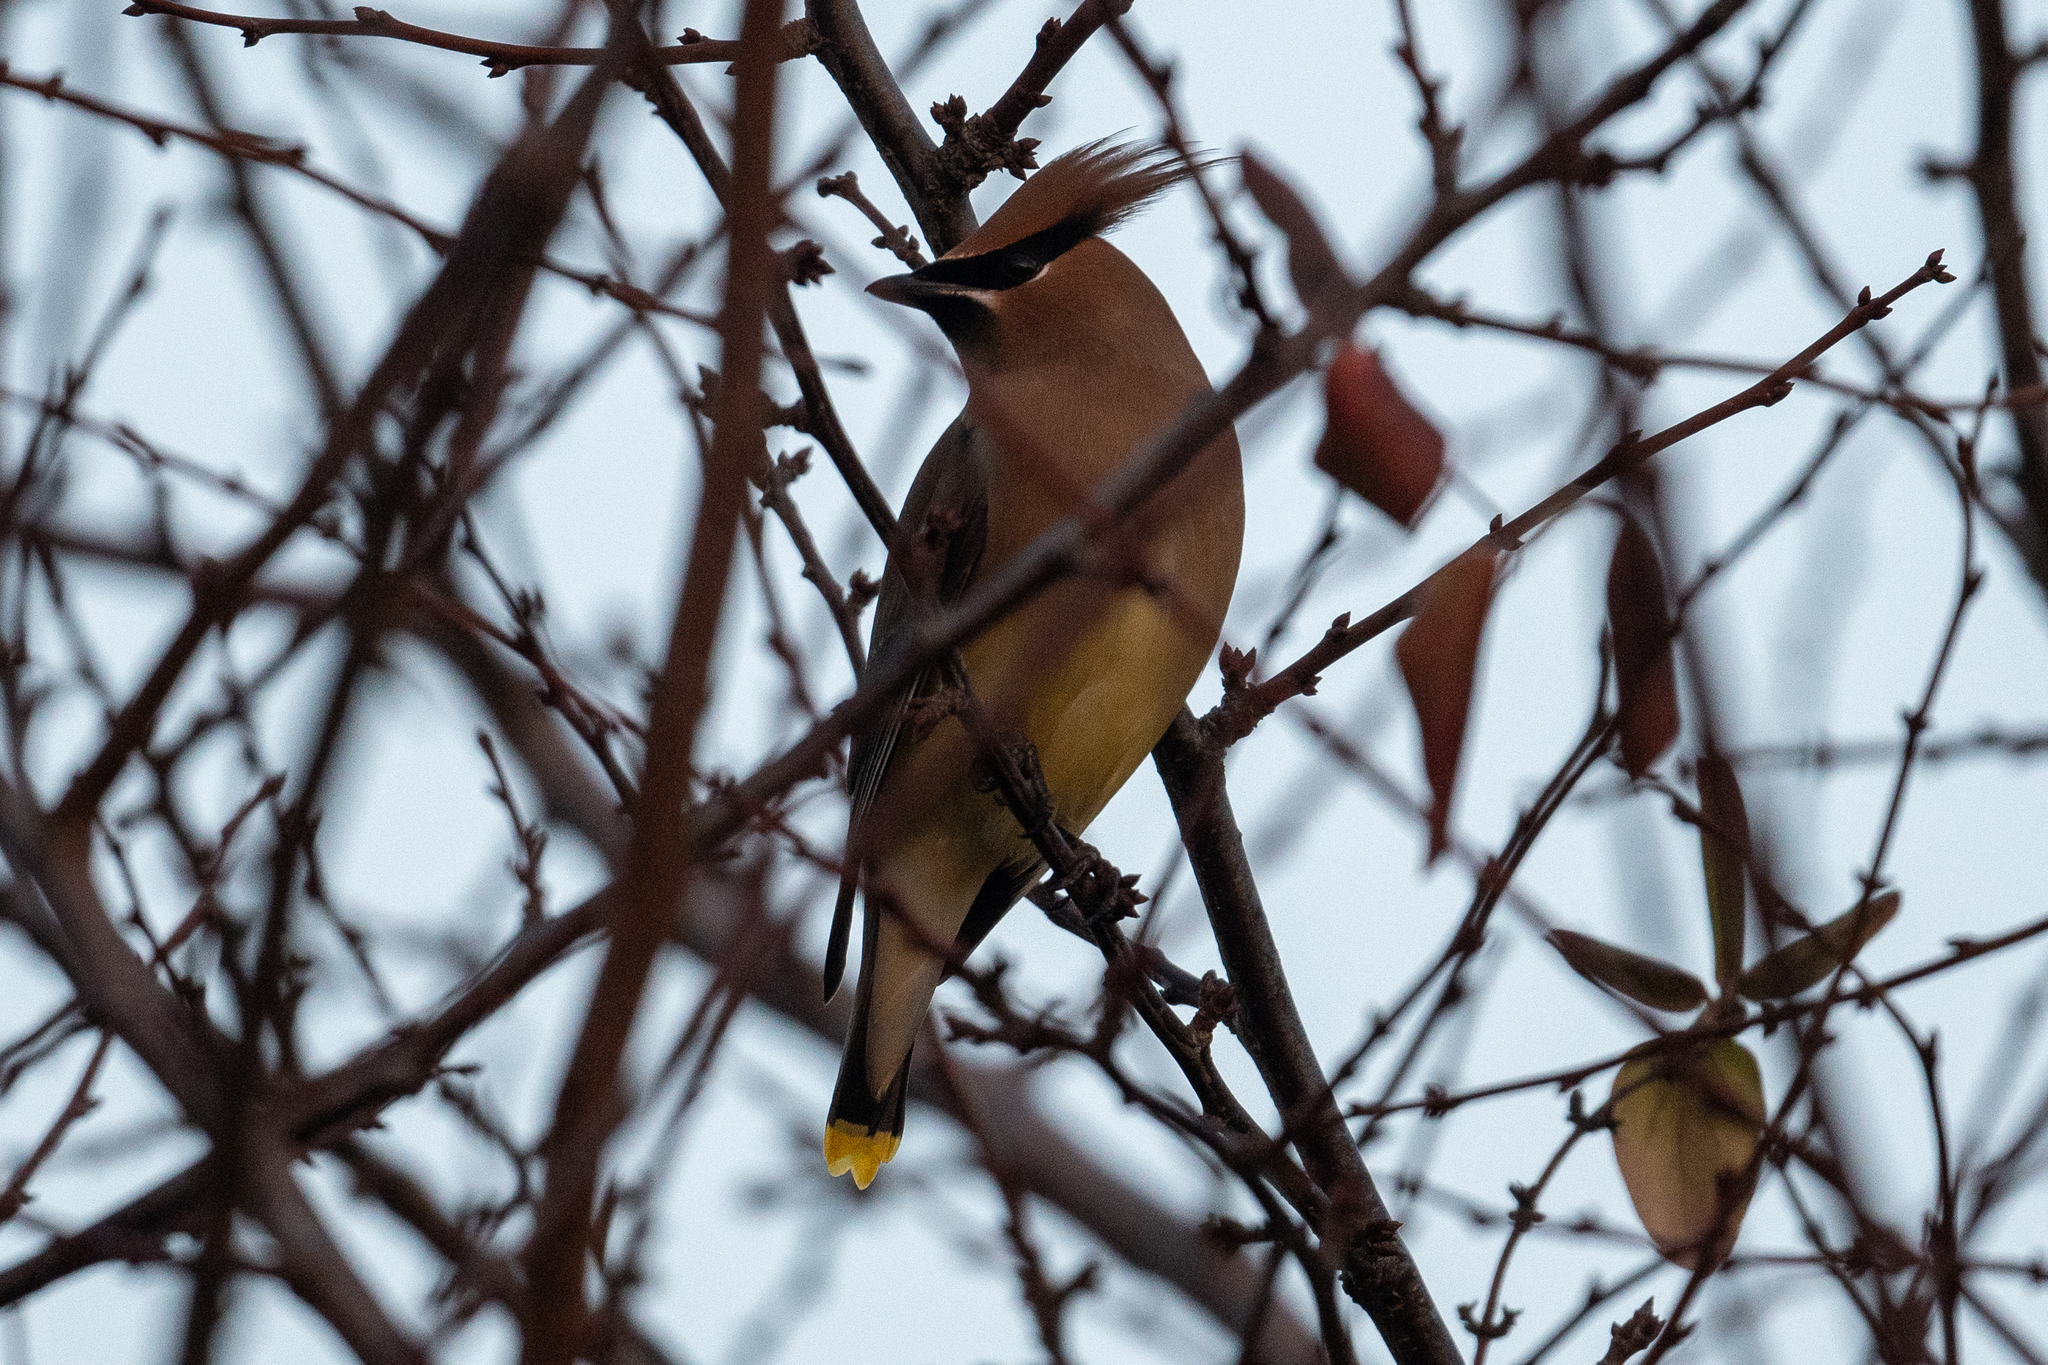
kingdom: Animalia
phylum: Chordata
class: Aves
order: Passeriformes
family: Bombycillidae
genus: Bombycilla
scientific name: Bombycilla cedrorum
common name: Cedar waxwing
